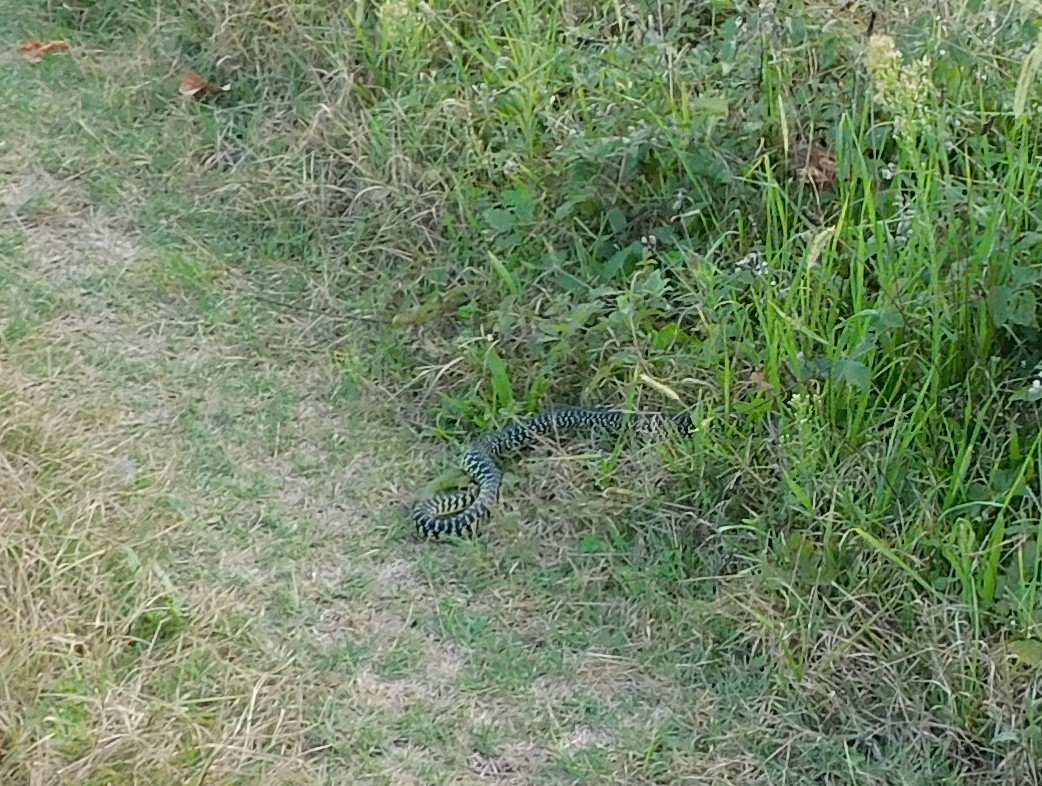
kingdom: Animalia
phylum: Chordata
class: Squamata
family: Colubridae
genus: Hierophis
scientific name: Hierophis viridiflavus
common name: Green whip snake
